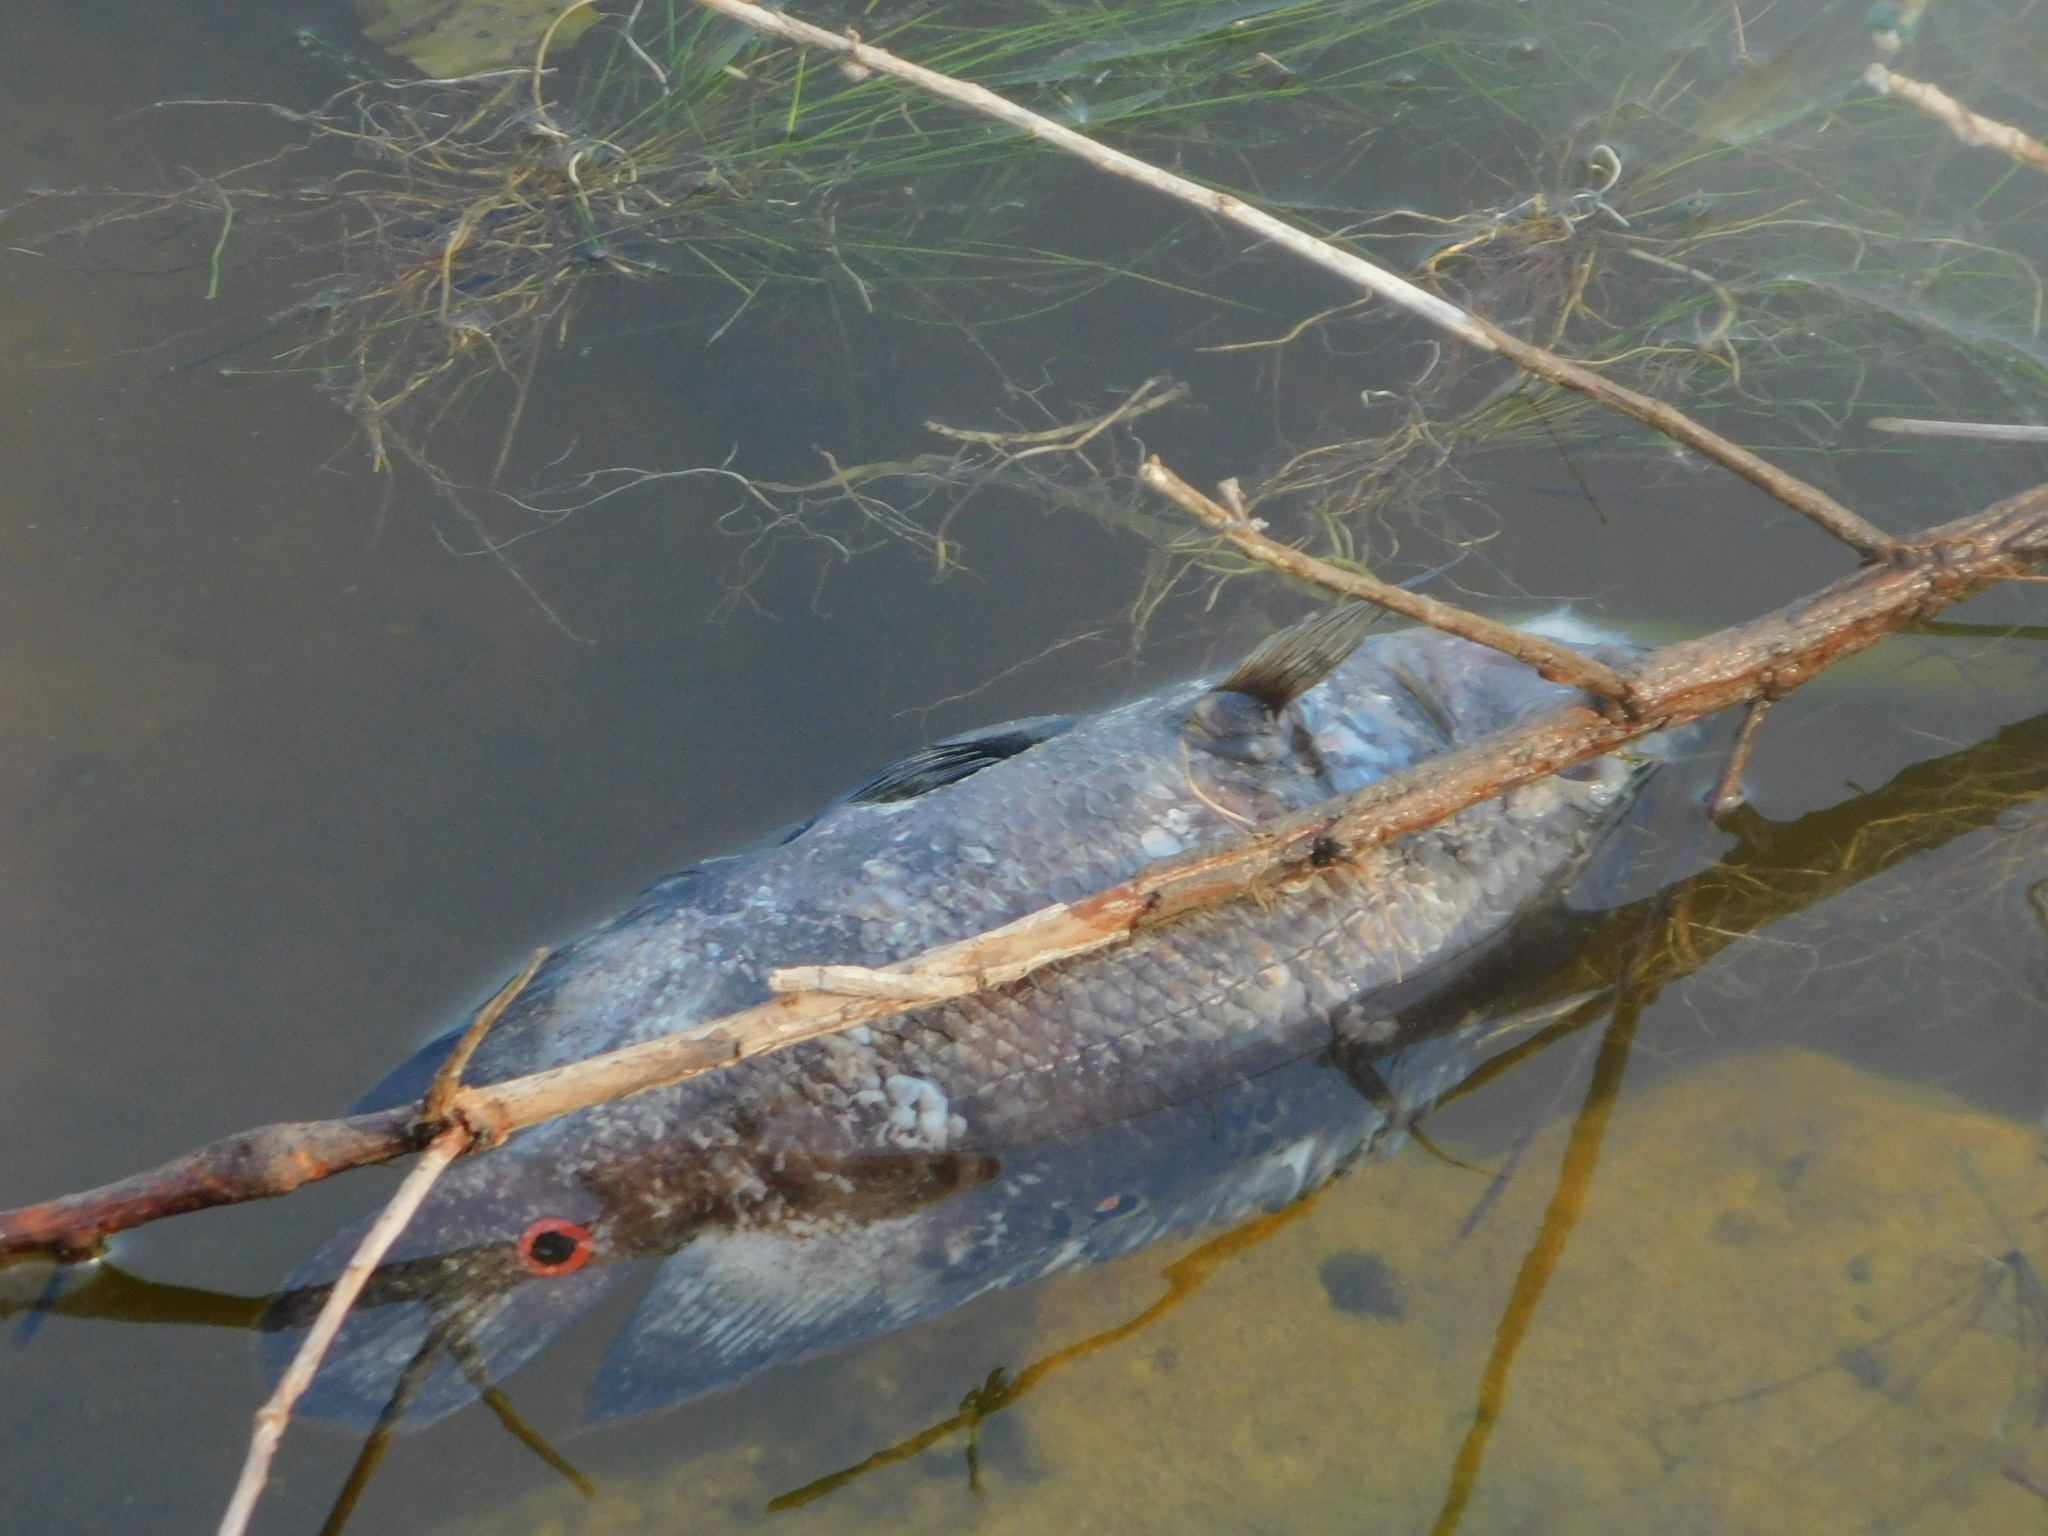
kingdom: Animalia
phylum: Chordata
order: Perciformes
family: Cichlidae
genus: Astronotus
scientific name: Astronotus ocellatus
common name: Oscar
